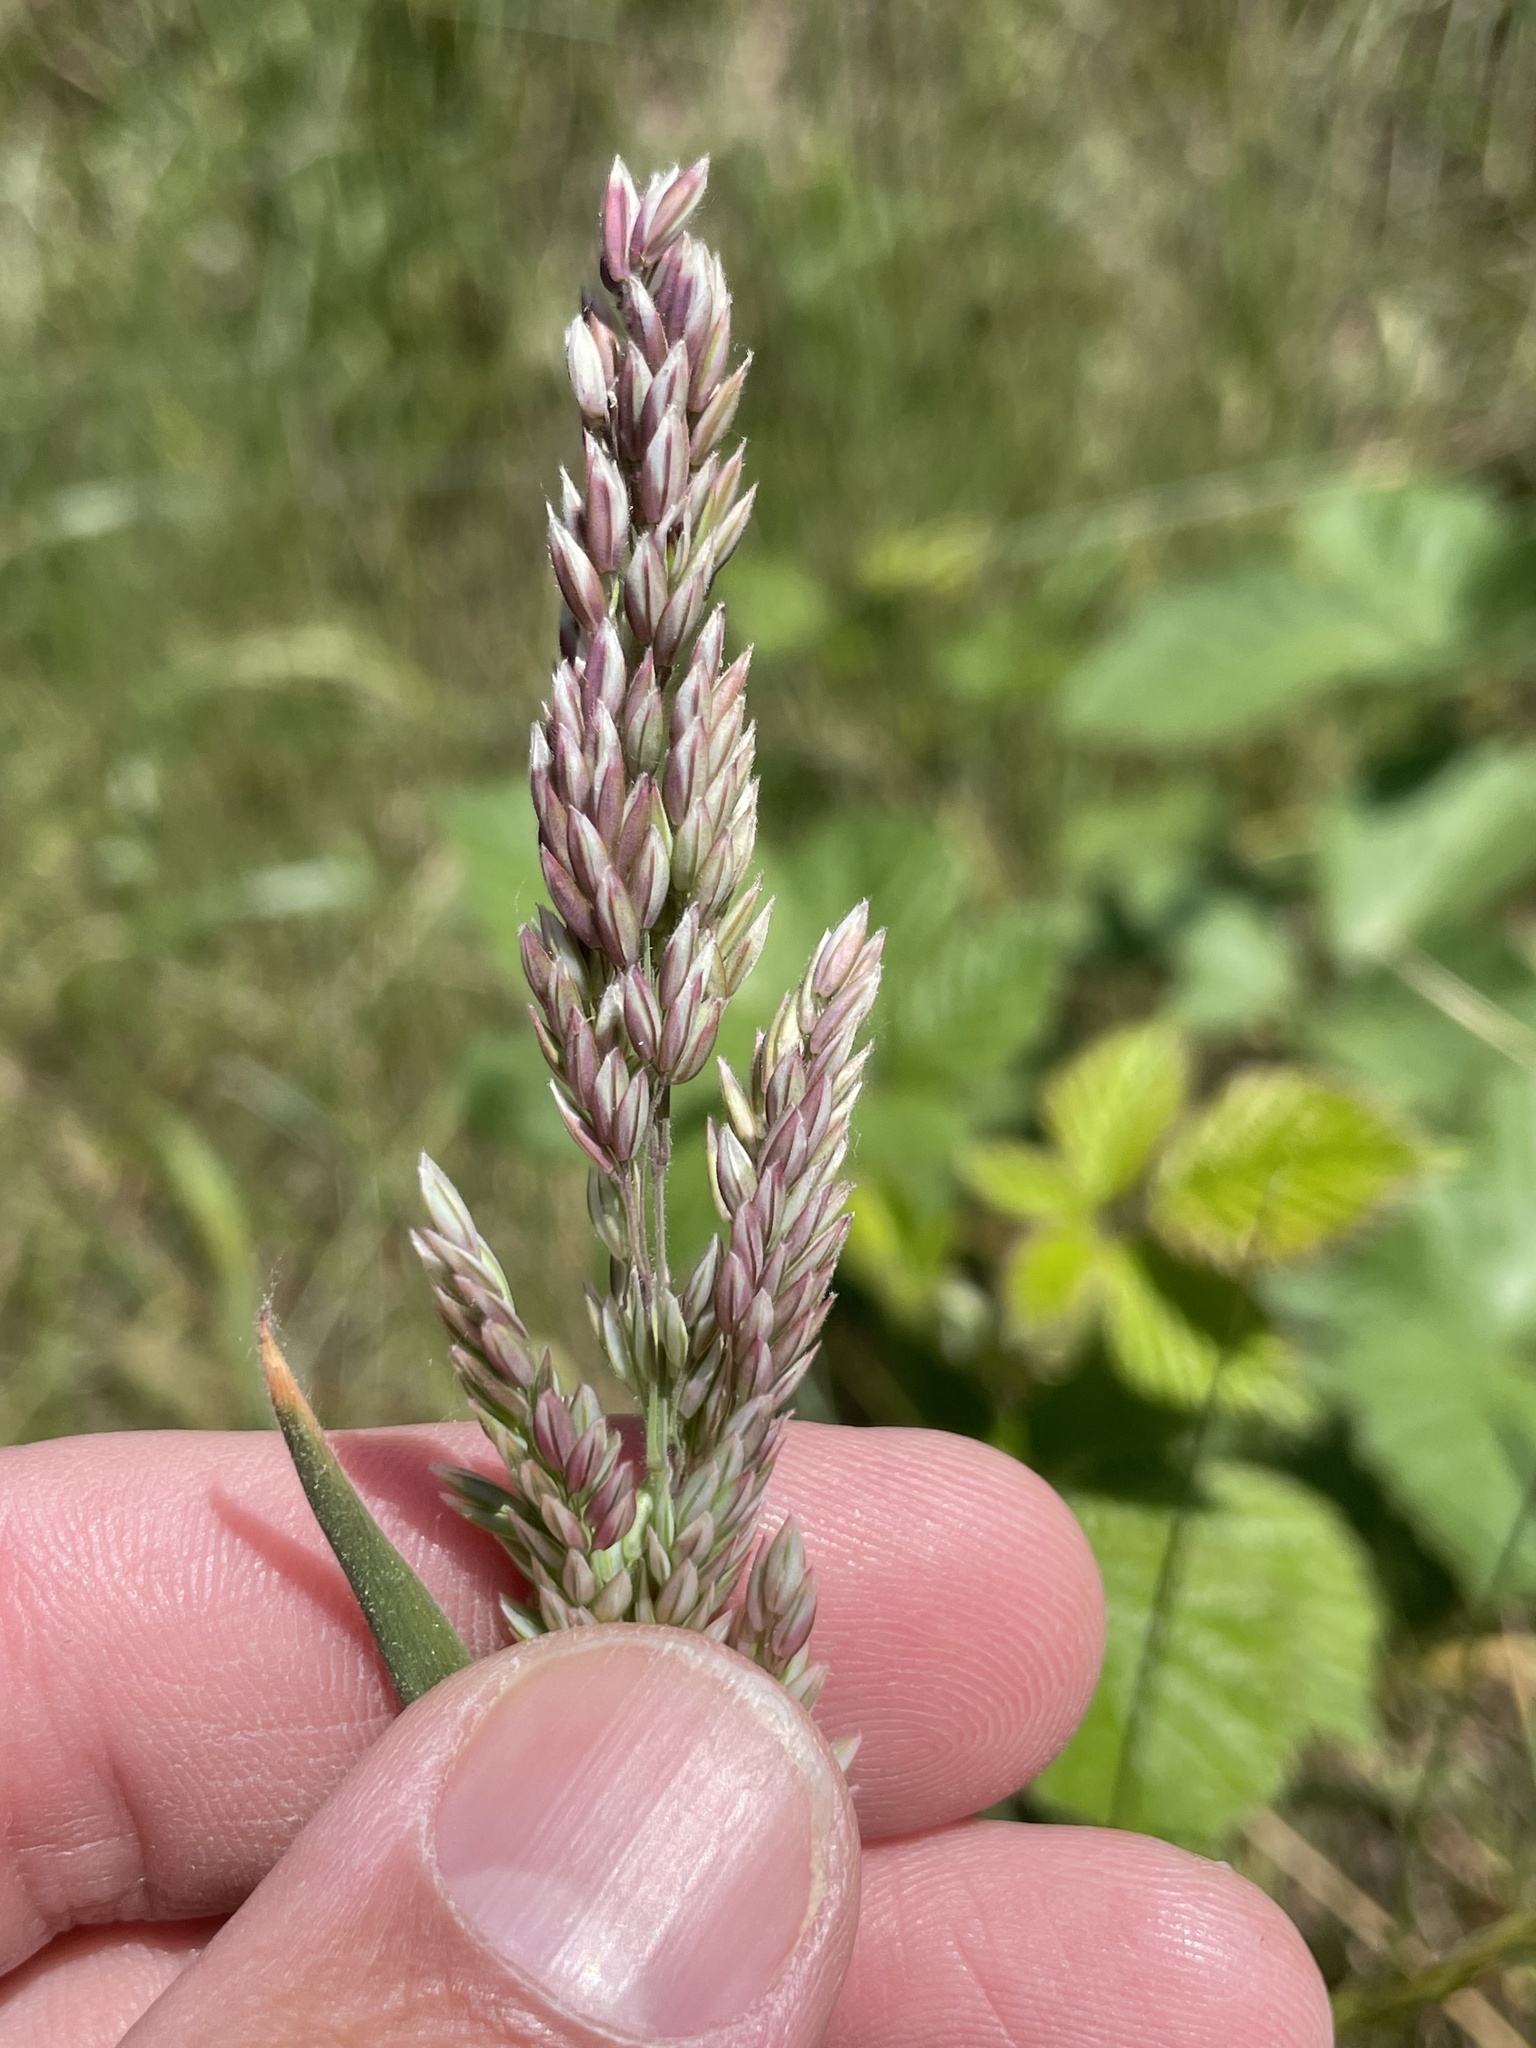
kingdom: Plantae
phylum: Tracheophyta
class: Liliopsida
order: Poales
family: Poaceae
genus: Holcus
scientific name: Holcus lanatus
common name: Yorkshire-fog
